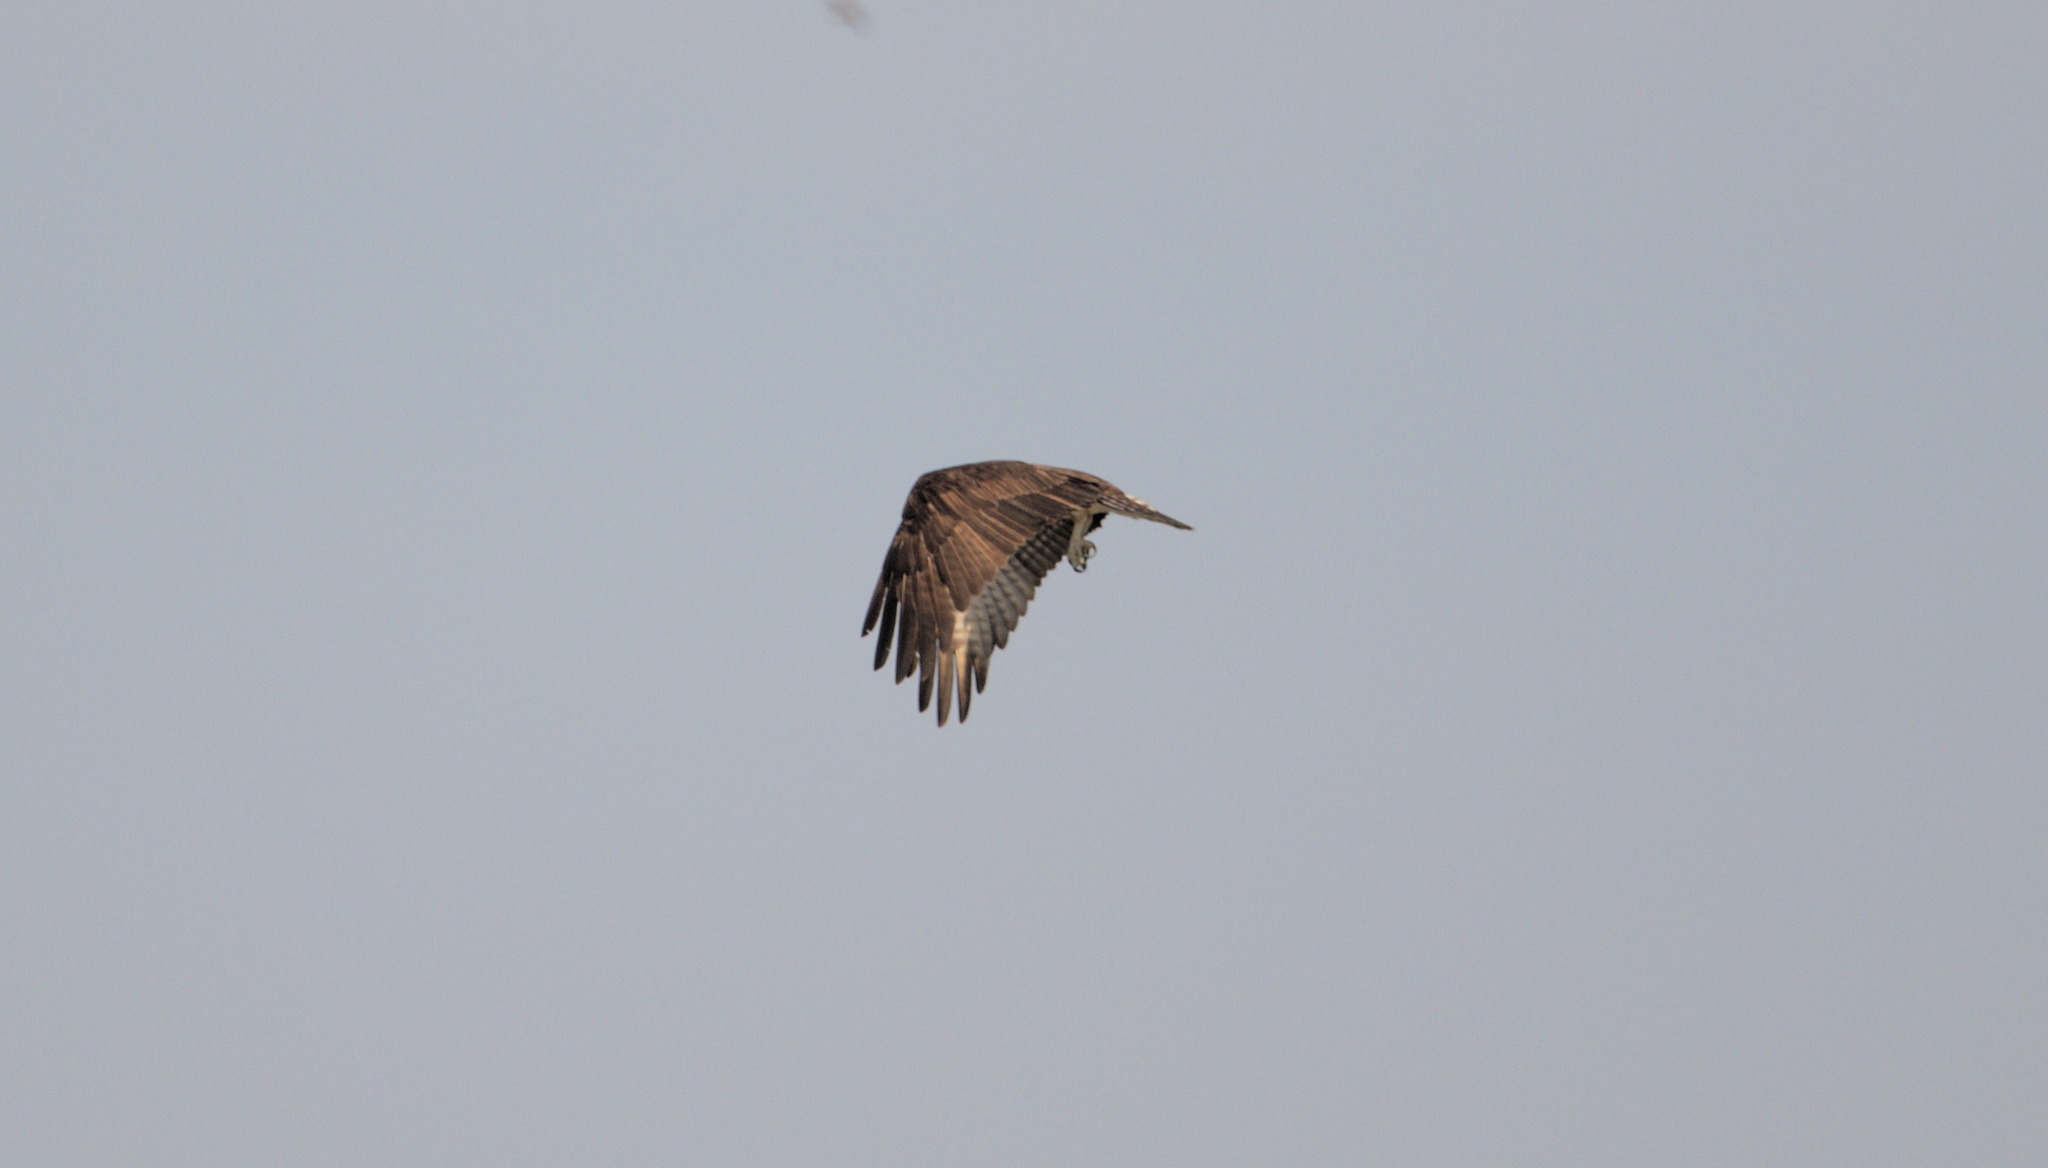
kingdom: Animalia
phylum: Chordata
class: Aves
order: Accipitriformes
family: Pandionidae
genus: Pandion
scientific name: Pandion haliaetus
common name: Osprey
